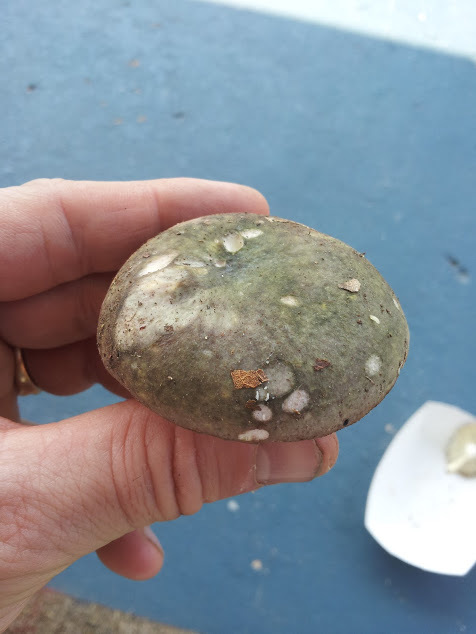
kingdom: Fungi
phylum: Basidiomycota
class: Agaricomycetes
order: Russulales
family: Russulaceae
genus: Russula
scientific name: Russula pseudo-olivascens
